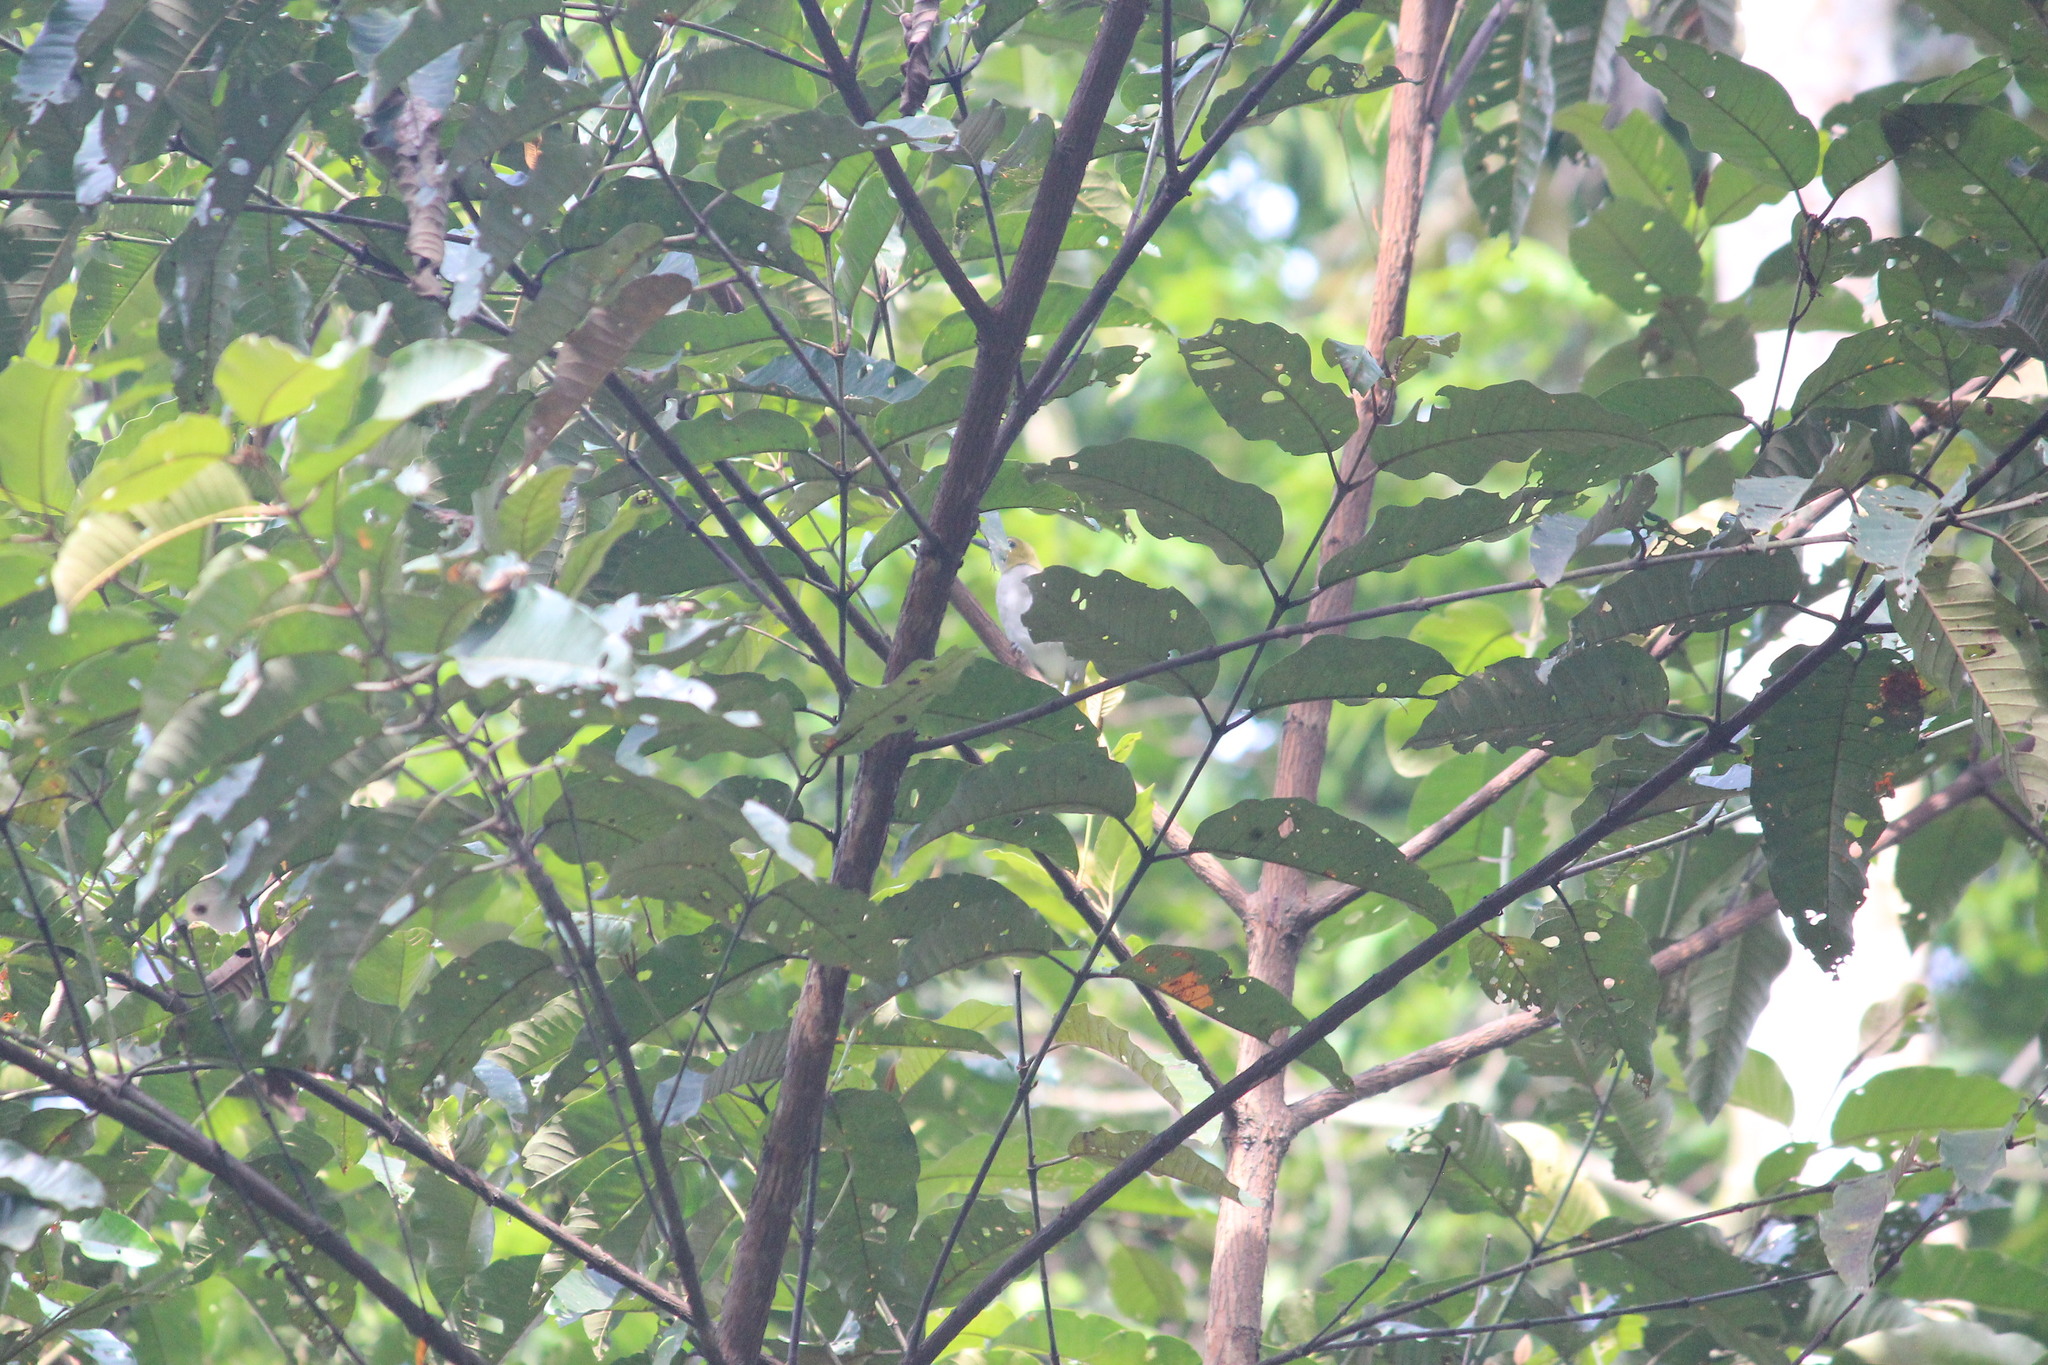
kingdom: Animalia
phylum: Chordata
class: Aves
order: Passeriformes
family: Nicatoridae
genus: Nicator
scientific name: Nicator chloris
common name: Western nicator
